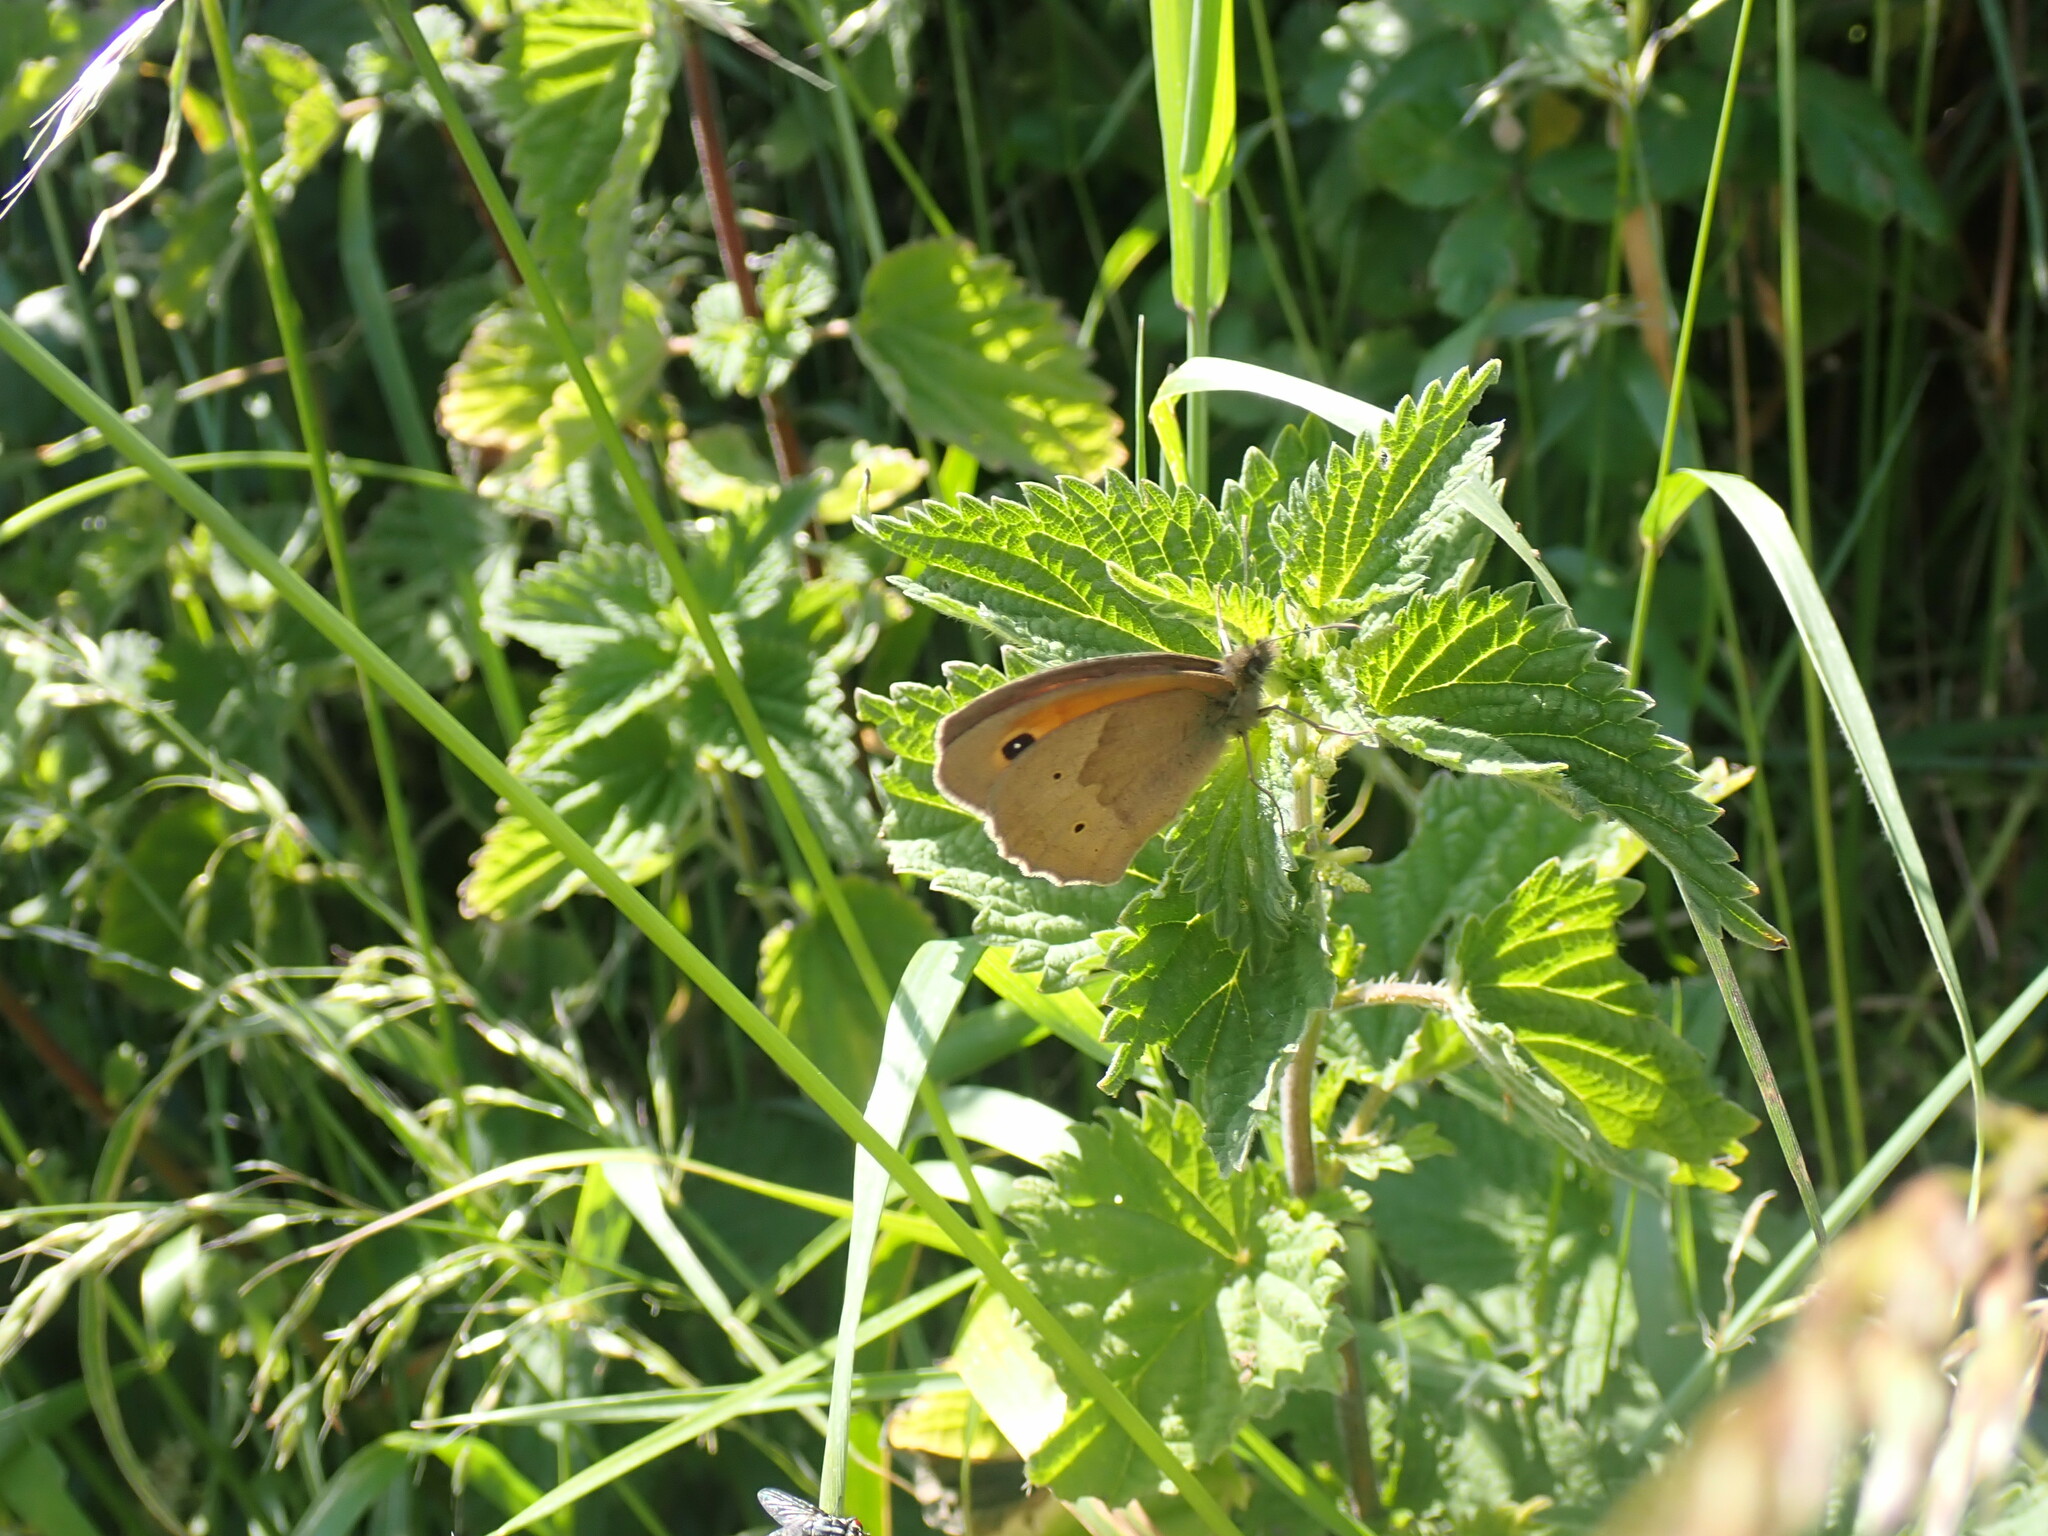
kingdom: Animalia
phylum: Arthropoda
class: Insecta
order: Lepidoptera
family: Nymphalidae
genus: Maniola
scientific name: Maniola jurtina
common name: Meadow brown
